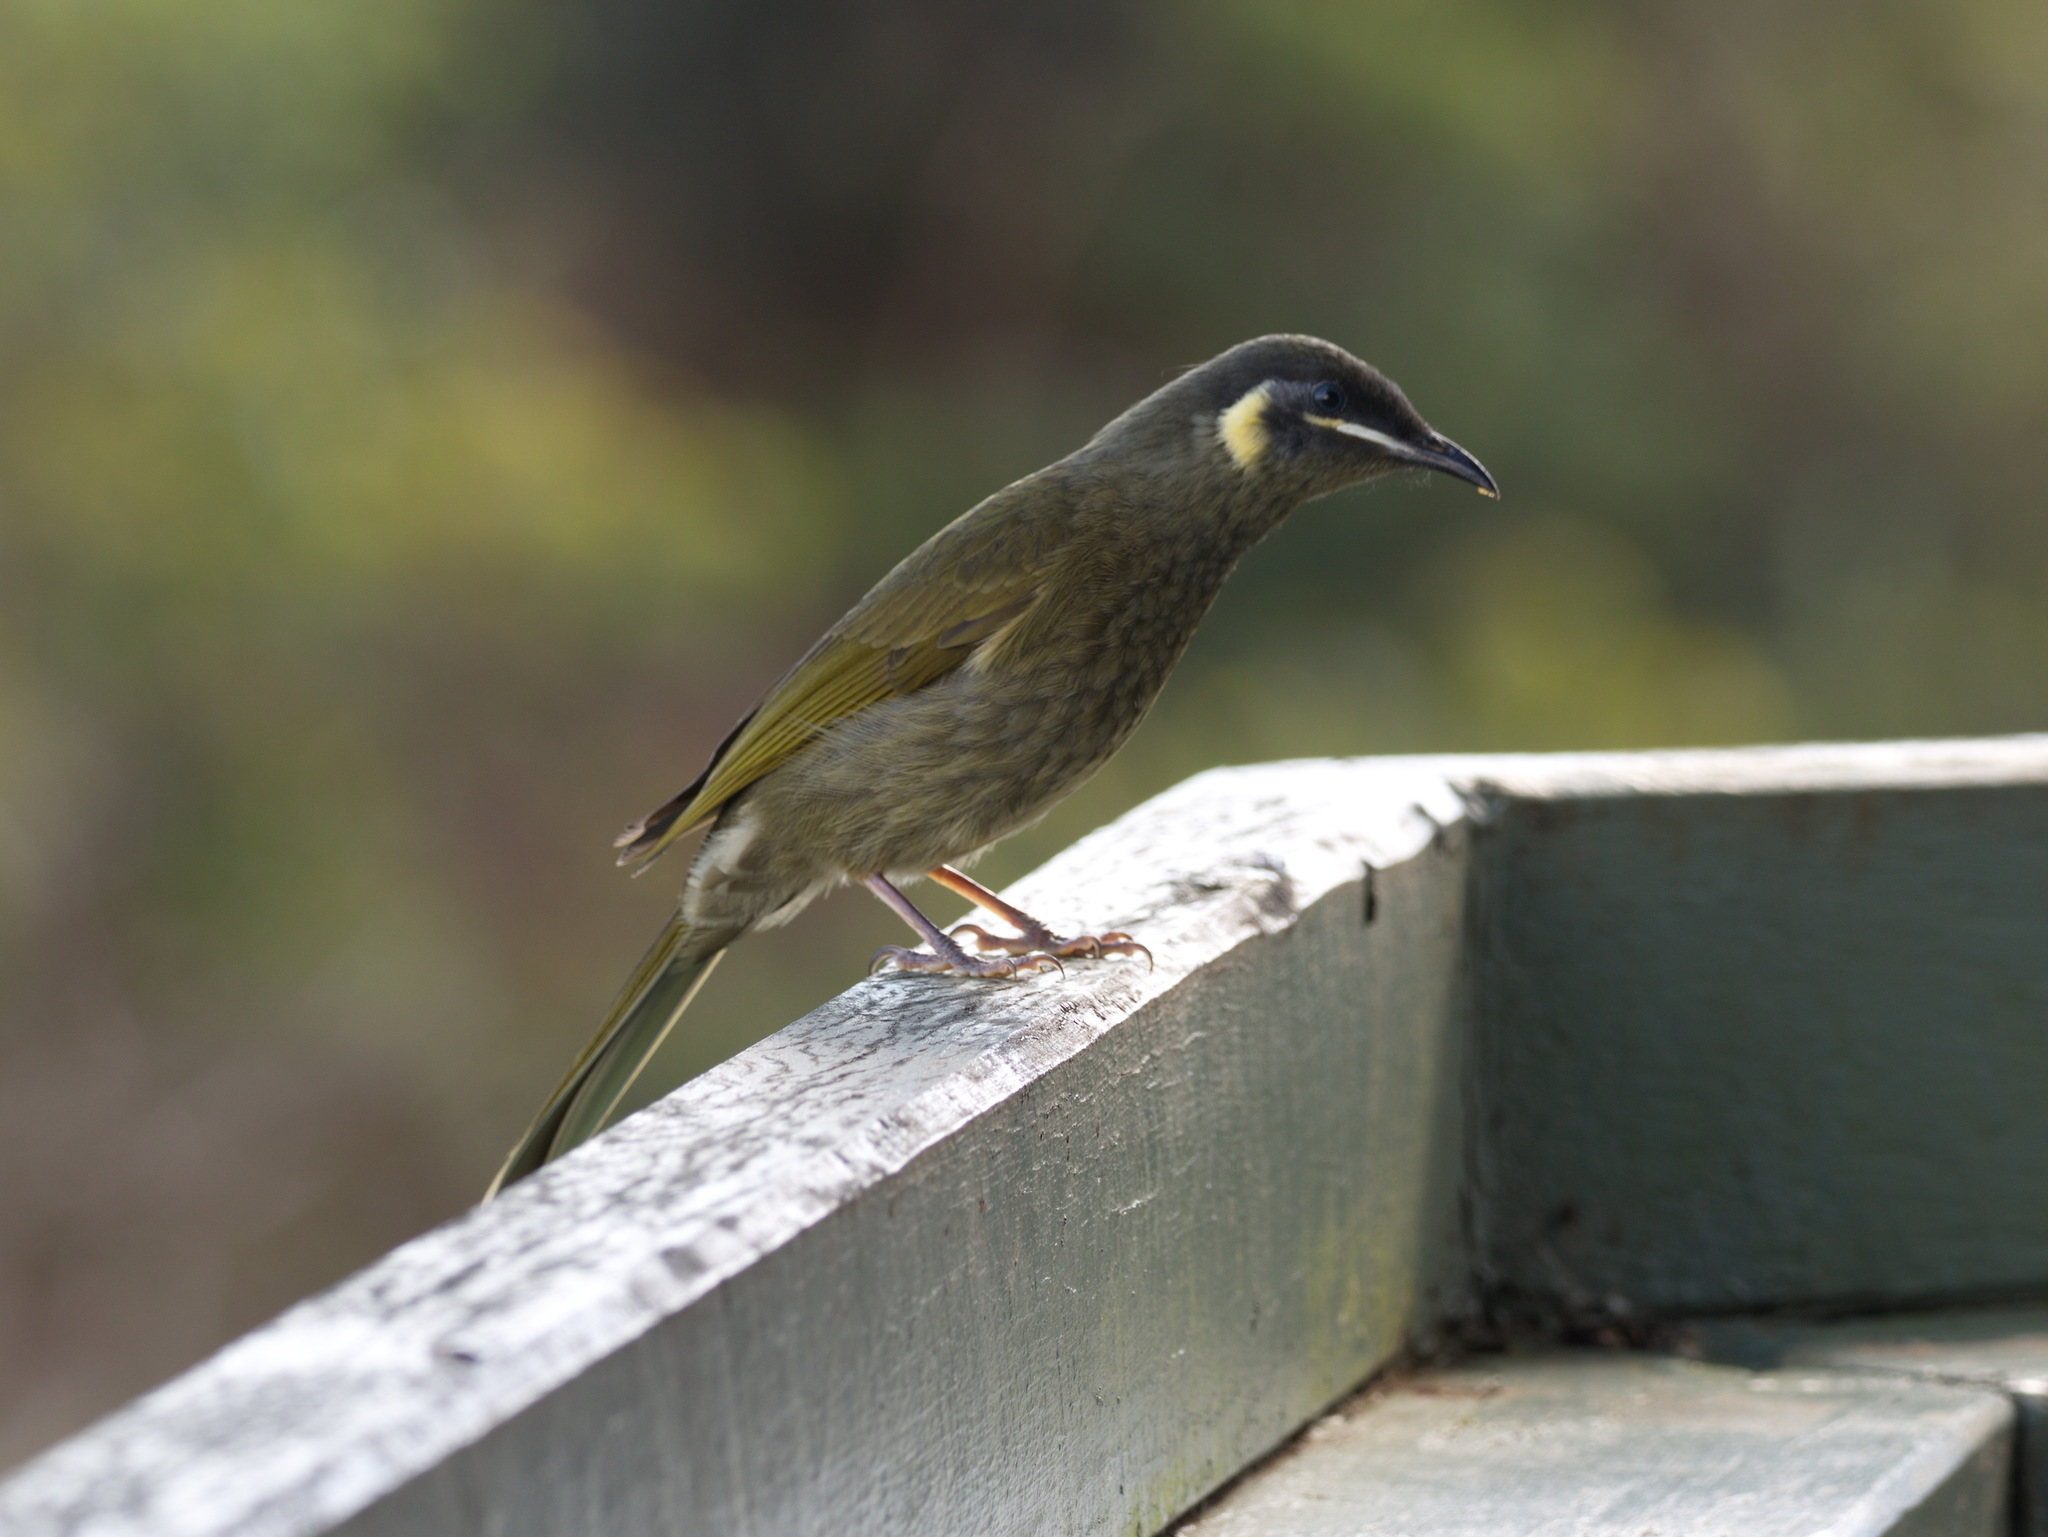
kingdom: Animalia
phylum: Chordata
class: Aves
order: Passeriformes
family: Meliphagidae
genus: Meliphaga
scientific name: Meliphaga lewinii
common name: Lewin's honeyeater
